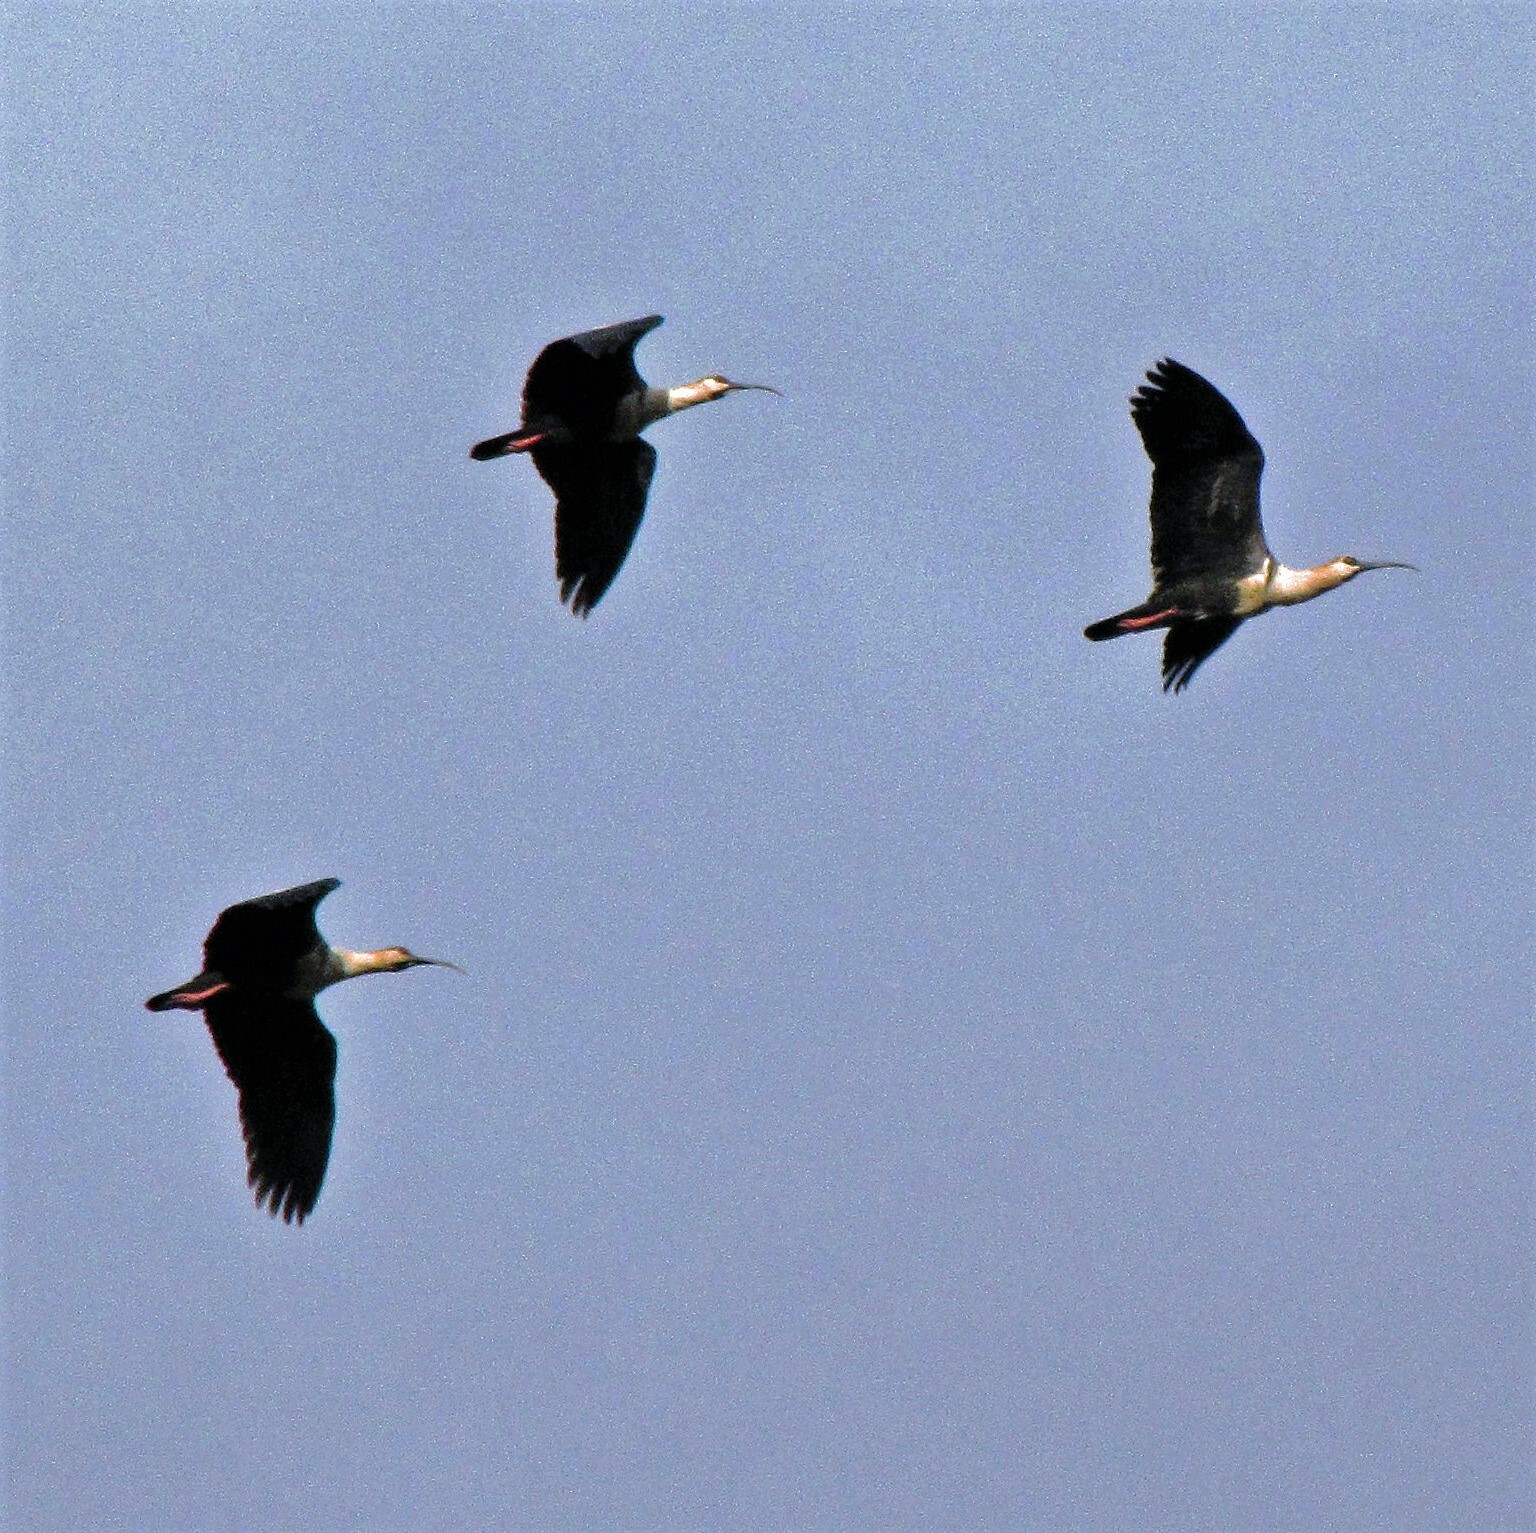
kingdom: Animalia
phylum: Chordata
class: Aves
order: Pelecaniformes
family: Threskiornithidae
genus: Theristicus
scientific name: Theristicus melanopis
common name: Black-faced ibis
